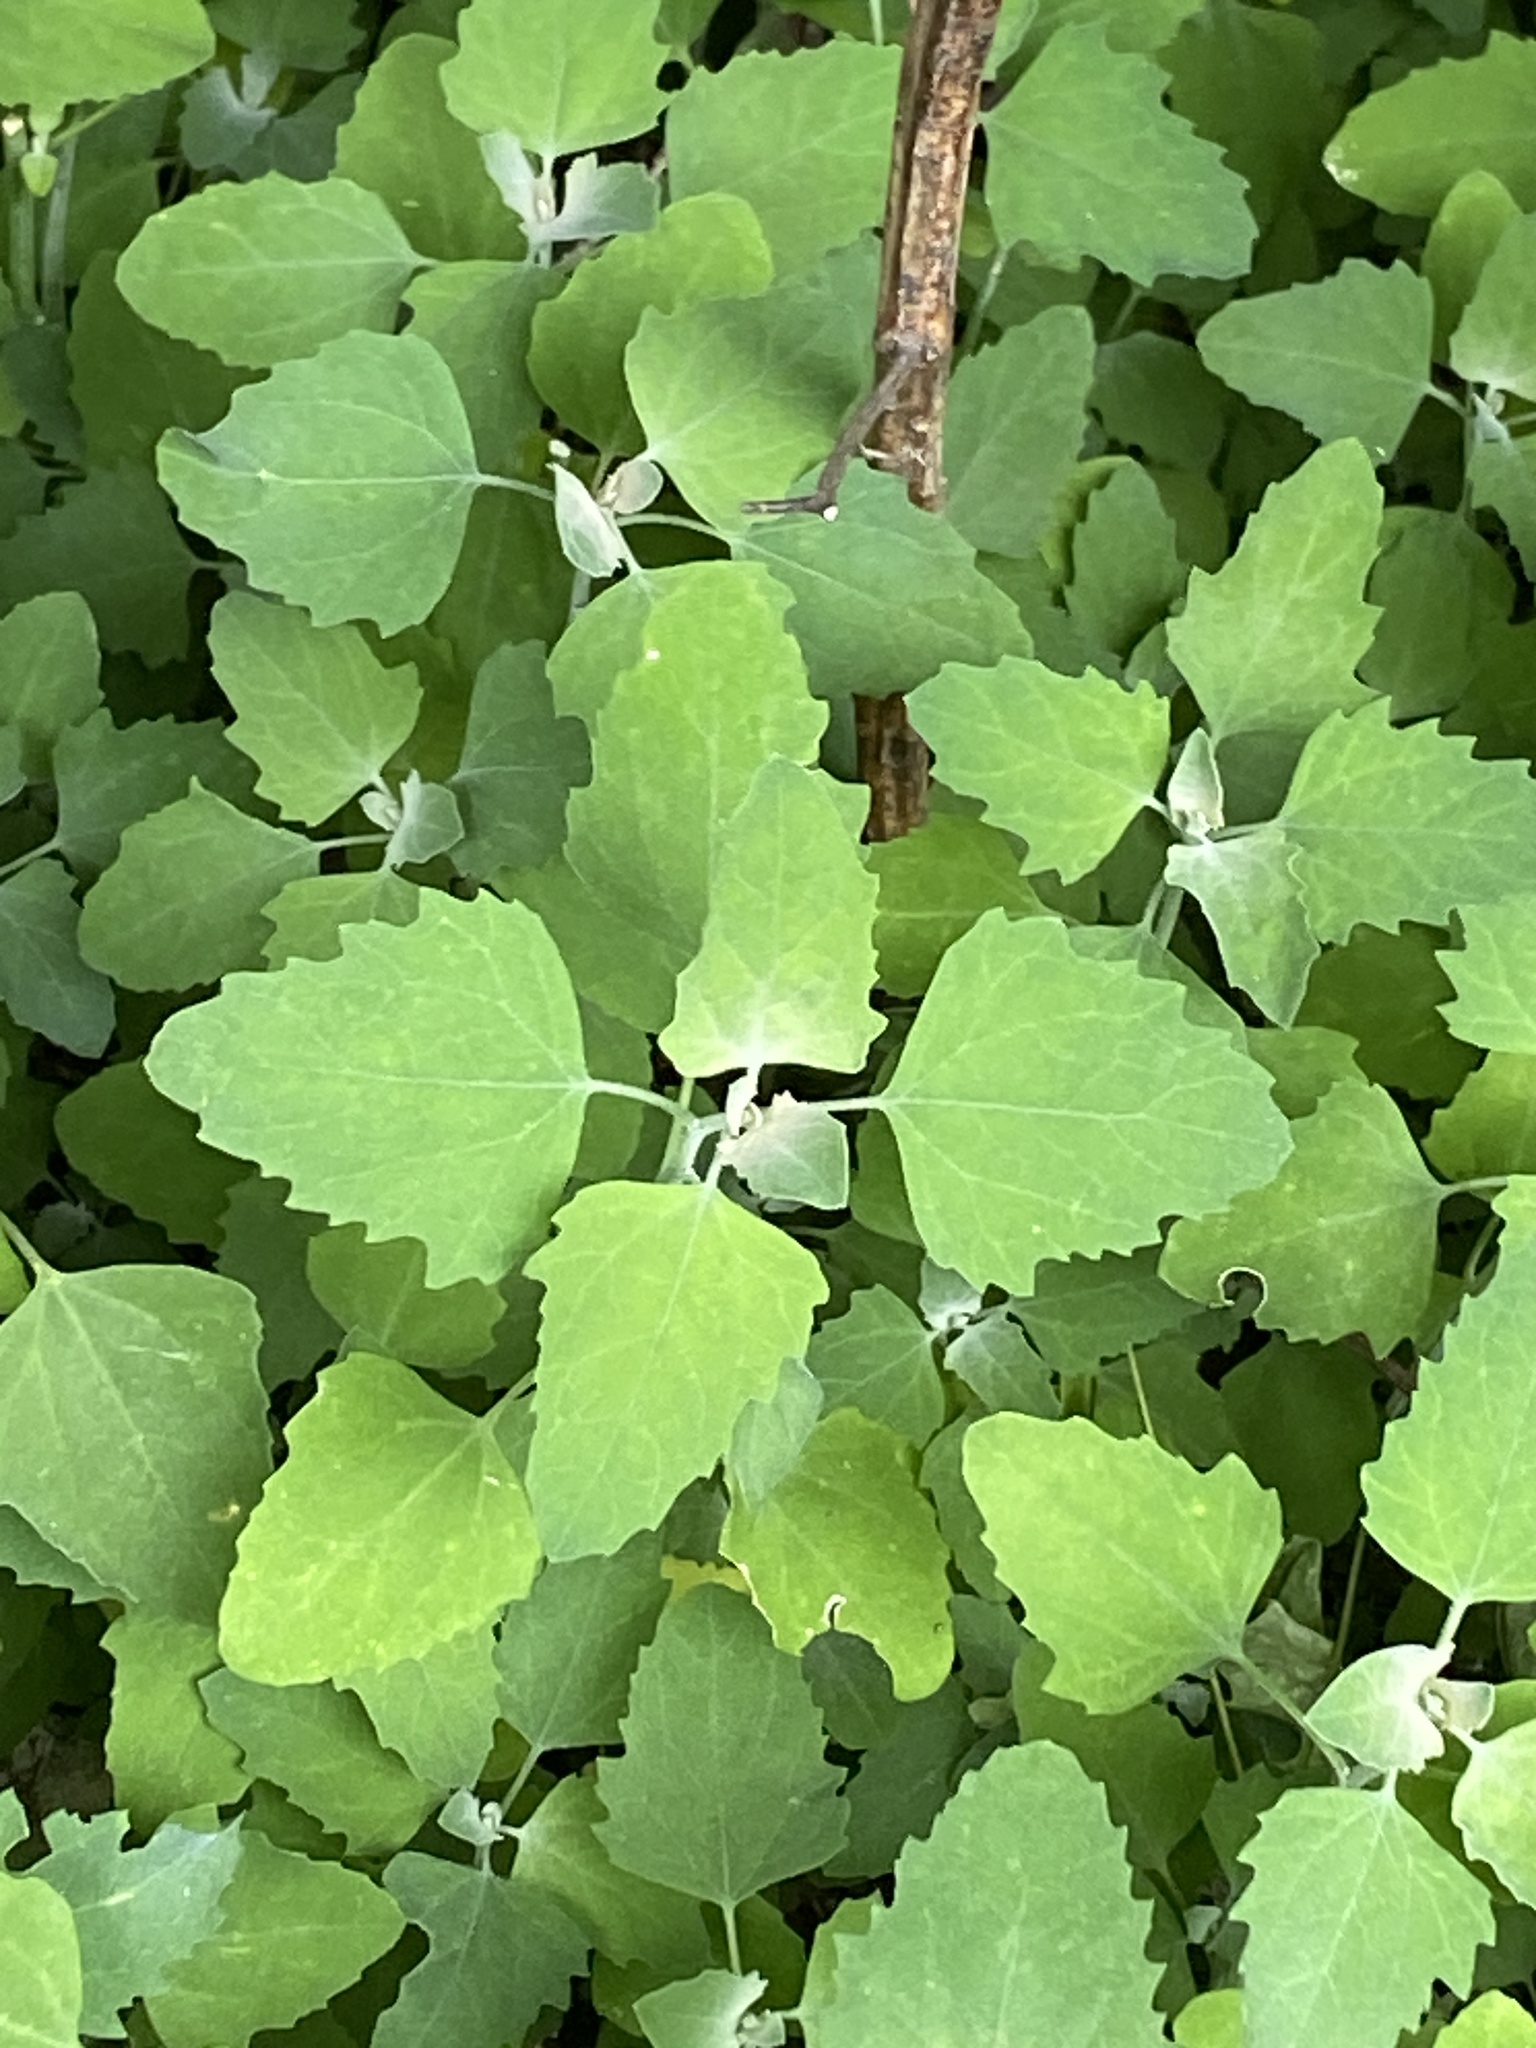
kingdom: Plantae
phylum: Tracheophyta
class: Magnoliopsida
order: Caryophyllales
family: Amaranthaceae
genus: Chenopodium
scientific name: Chenopodium album
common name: Fat-hen
